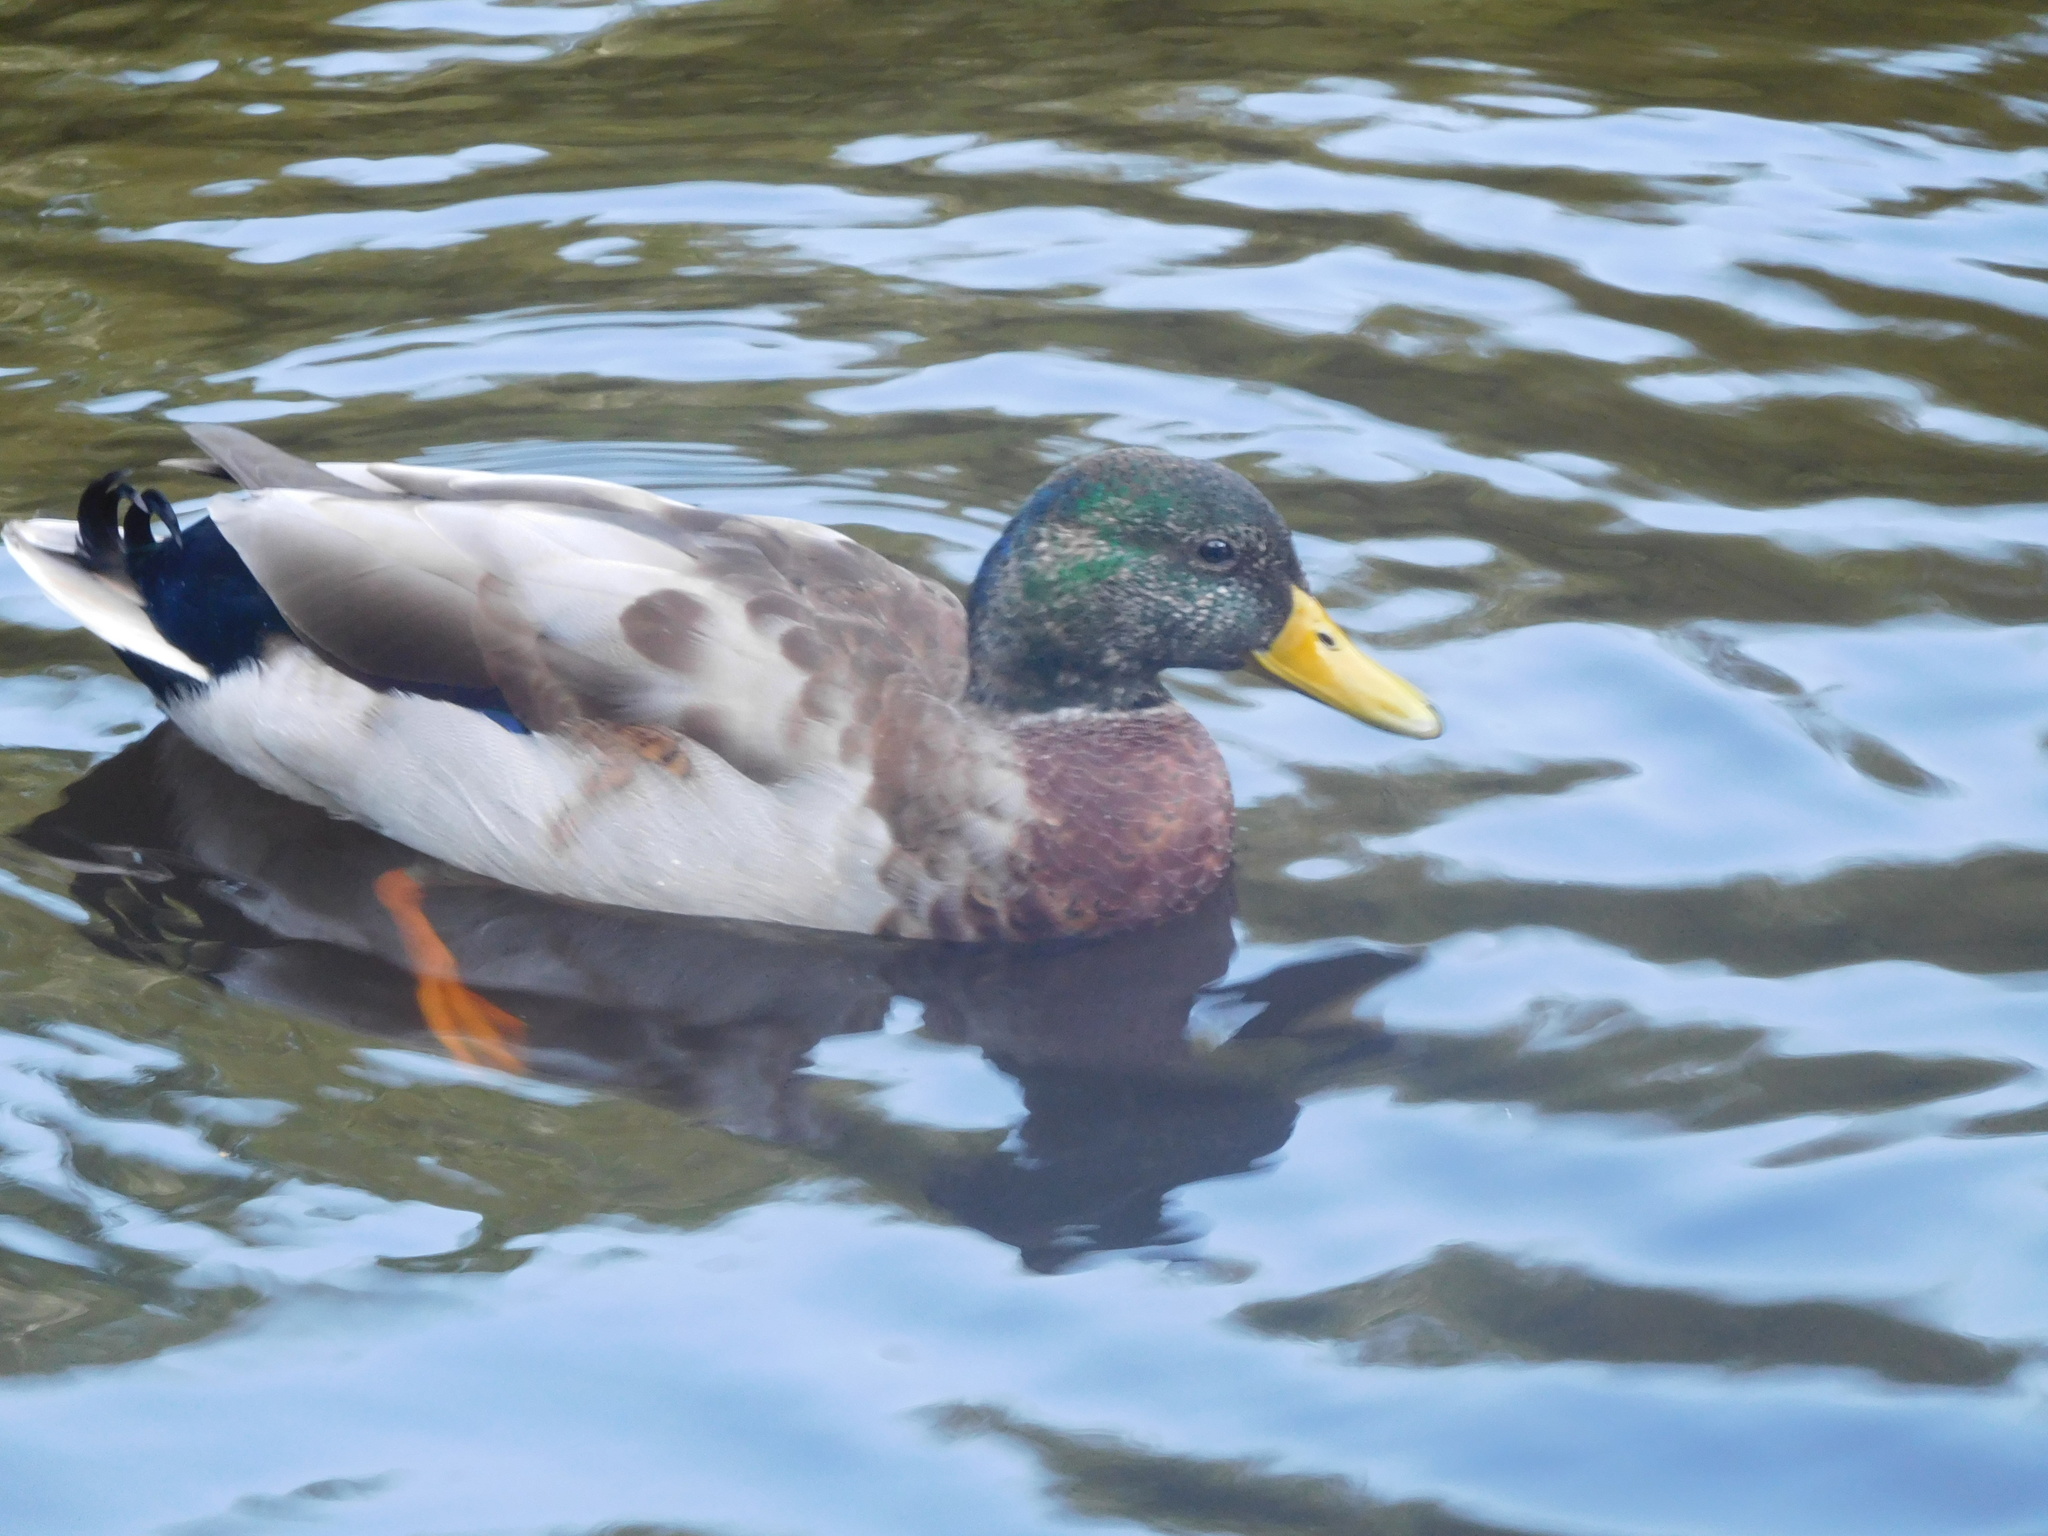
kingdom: Animalia
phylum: Chordata
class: Aves
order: Anseriformes
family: Anatidae
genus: Anas
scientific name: Anas platyrhynchos
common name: Mallard
